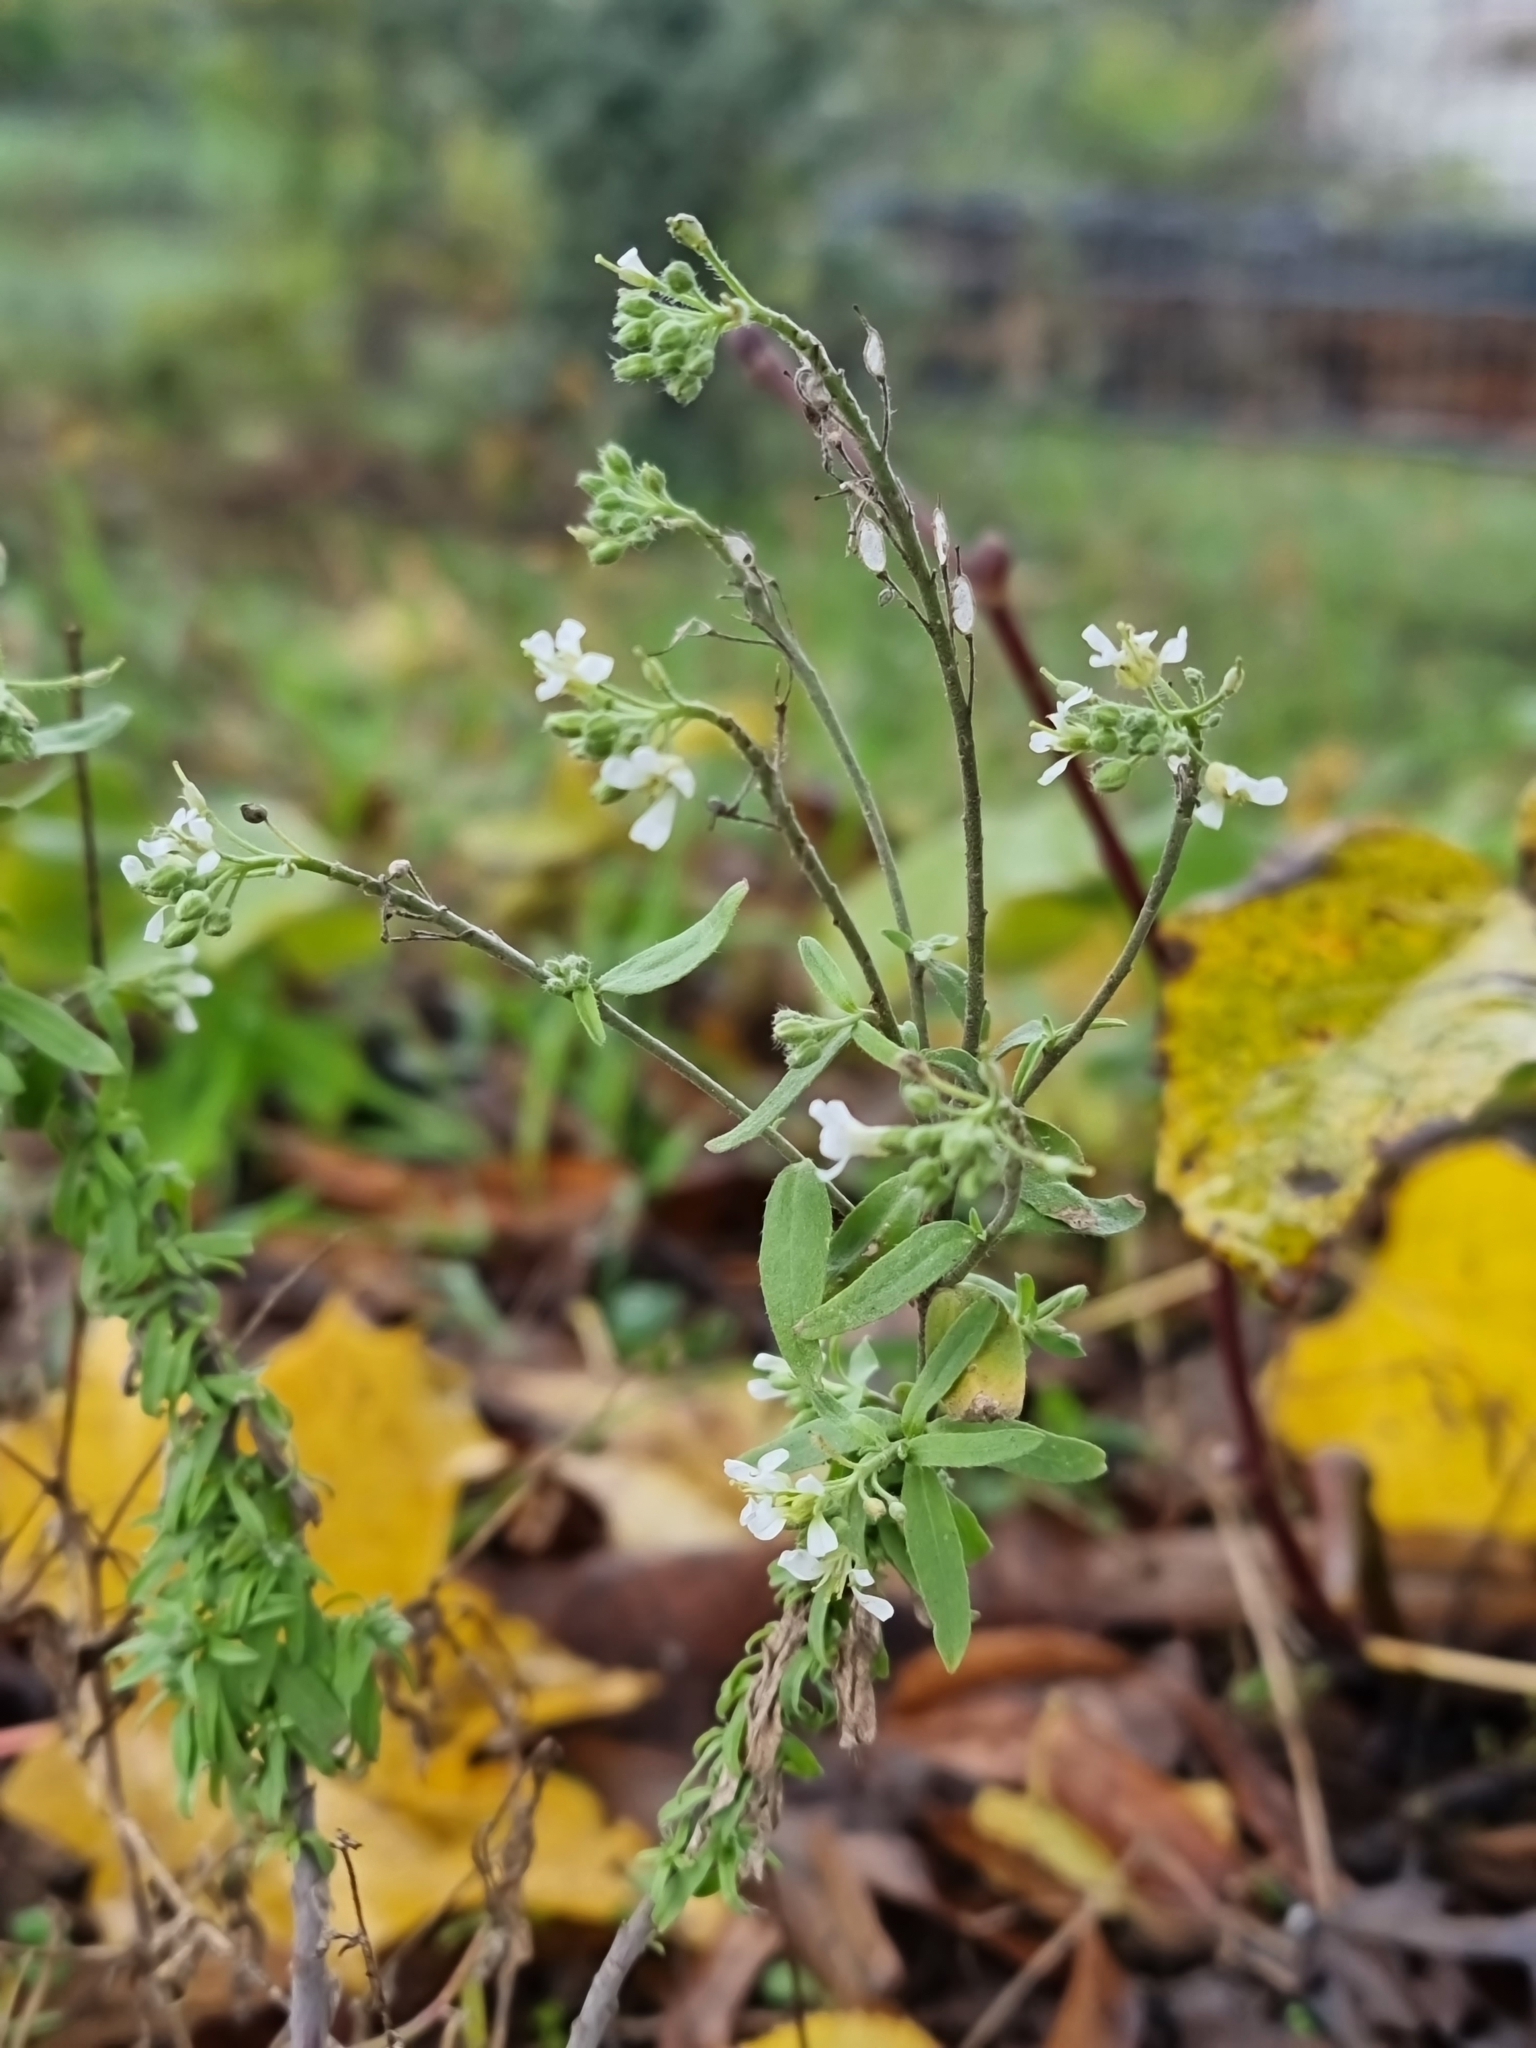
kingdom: Plantae
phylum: Tracheophyta
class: Magnoliopsida
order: Brassicales
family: Brassicaceae
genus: Berteroa
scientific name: Berteroa incana
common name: Hoary alison
